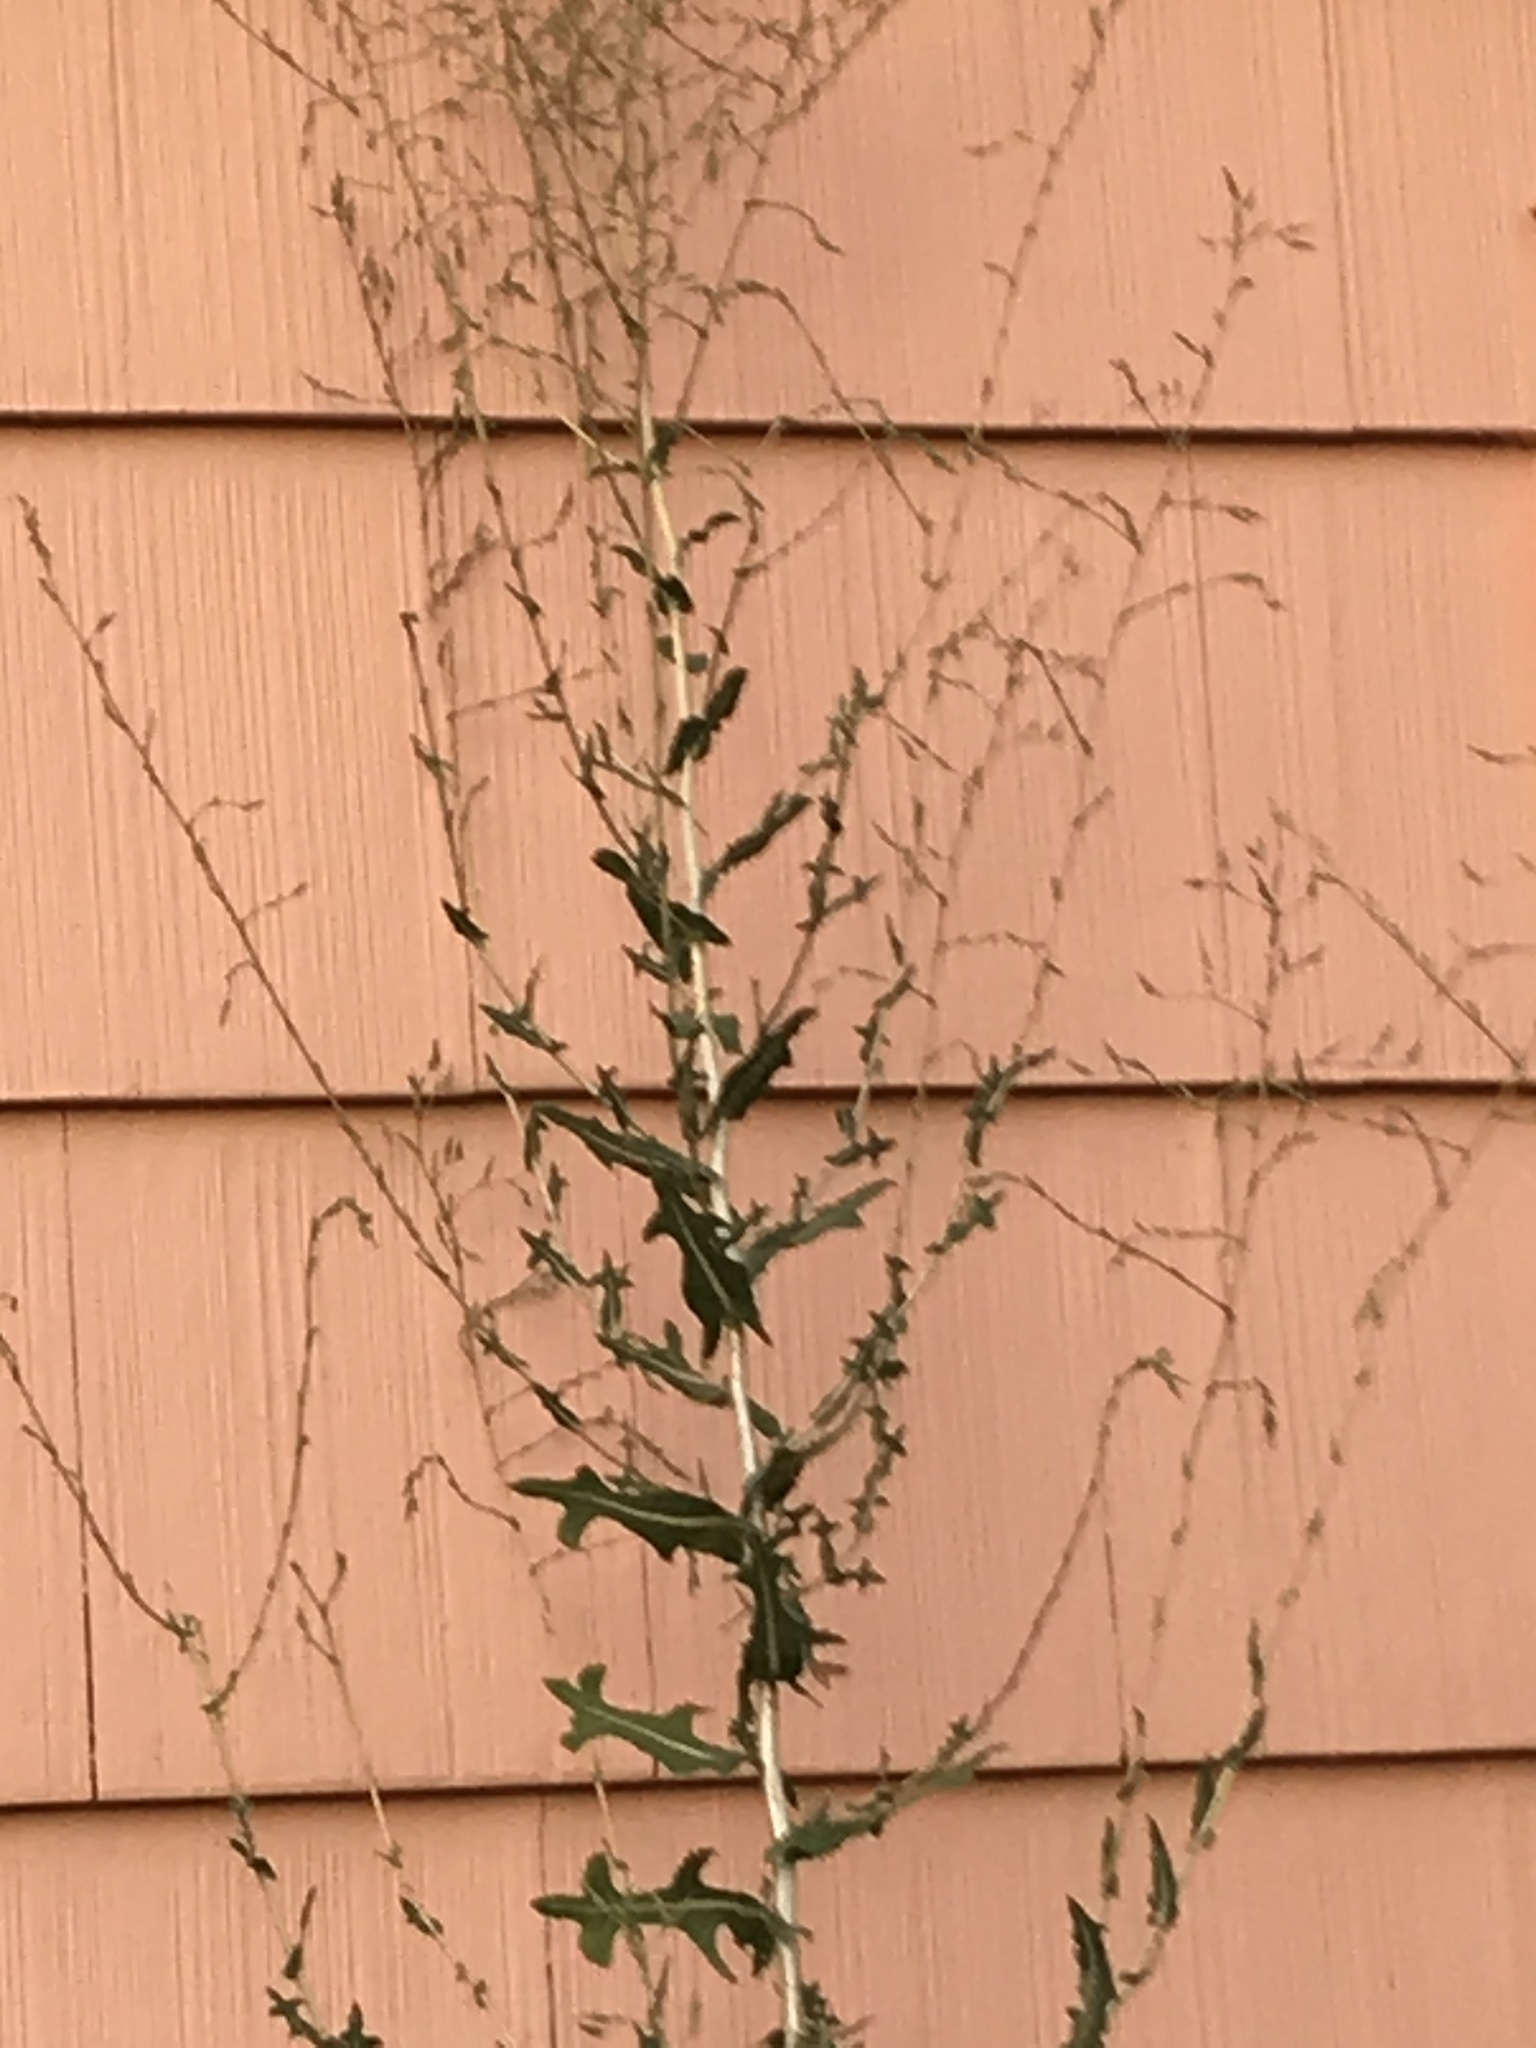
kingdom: Plantae
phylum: Tracheophyta
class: Magnoliopsida
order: Asterales
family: Asteraceae
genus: Lactuca
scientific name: Lactuca serriola
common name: Prickly lettuce
